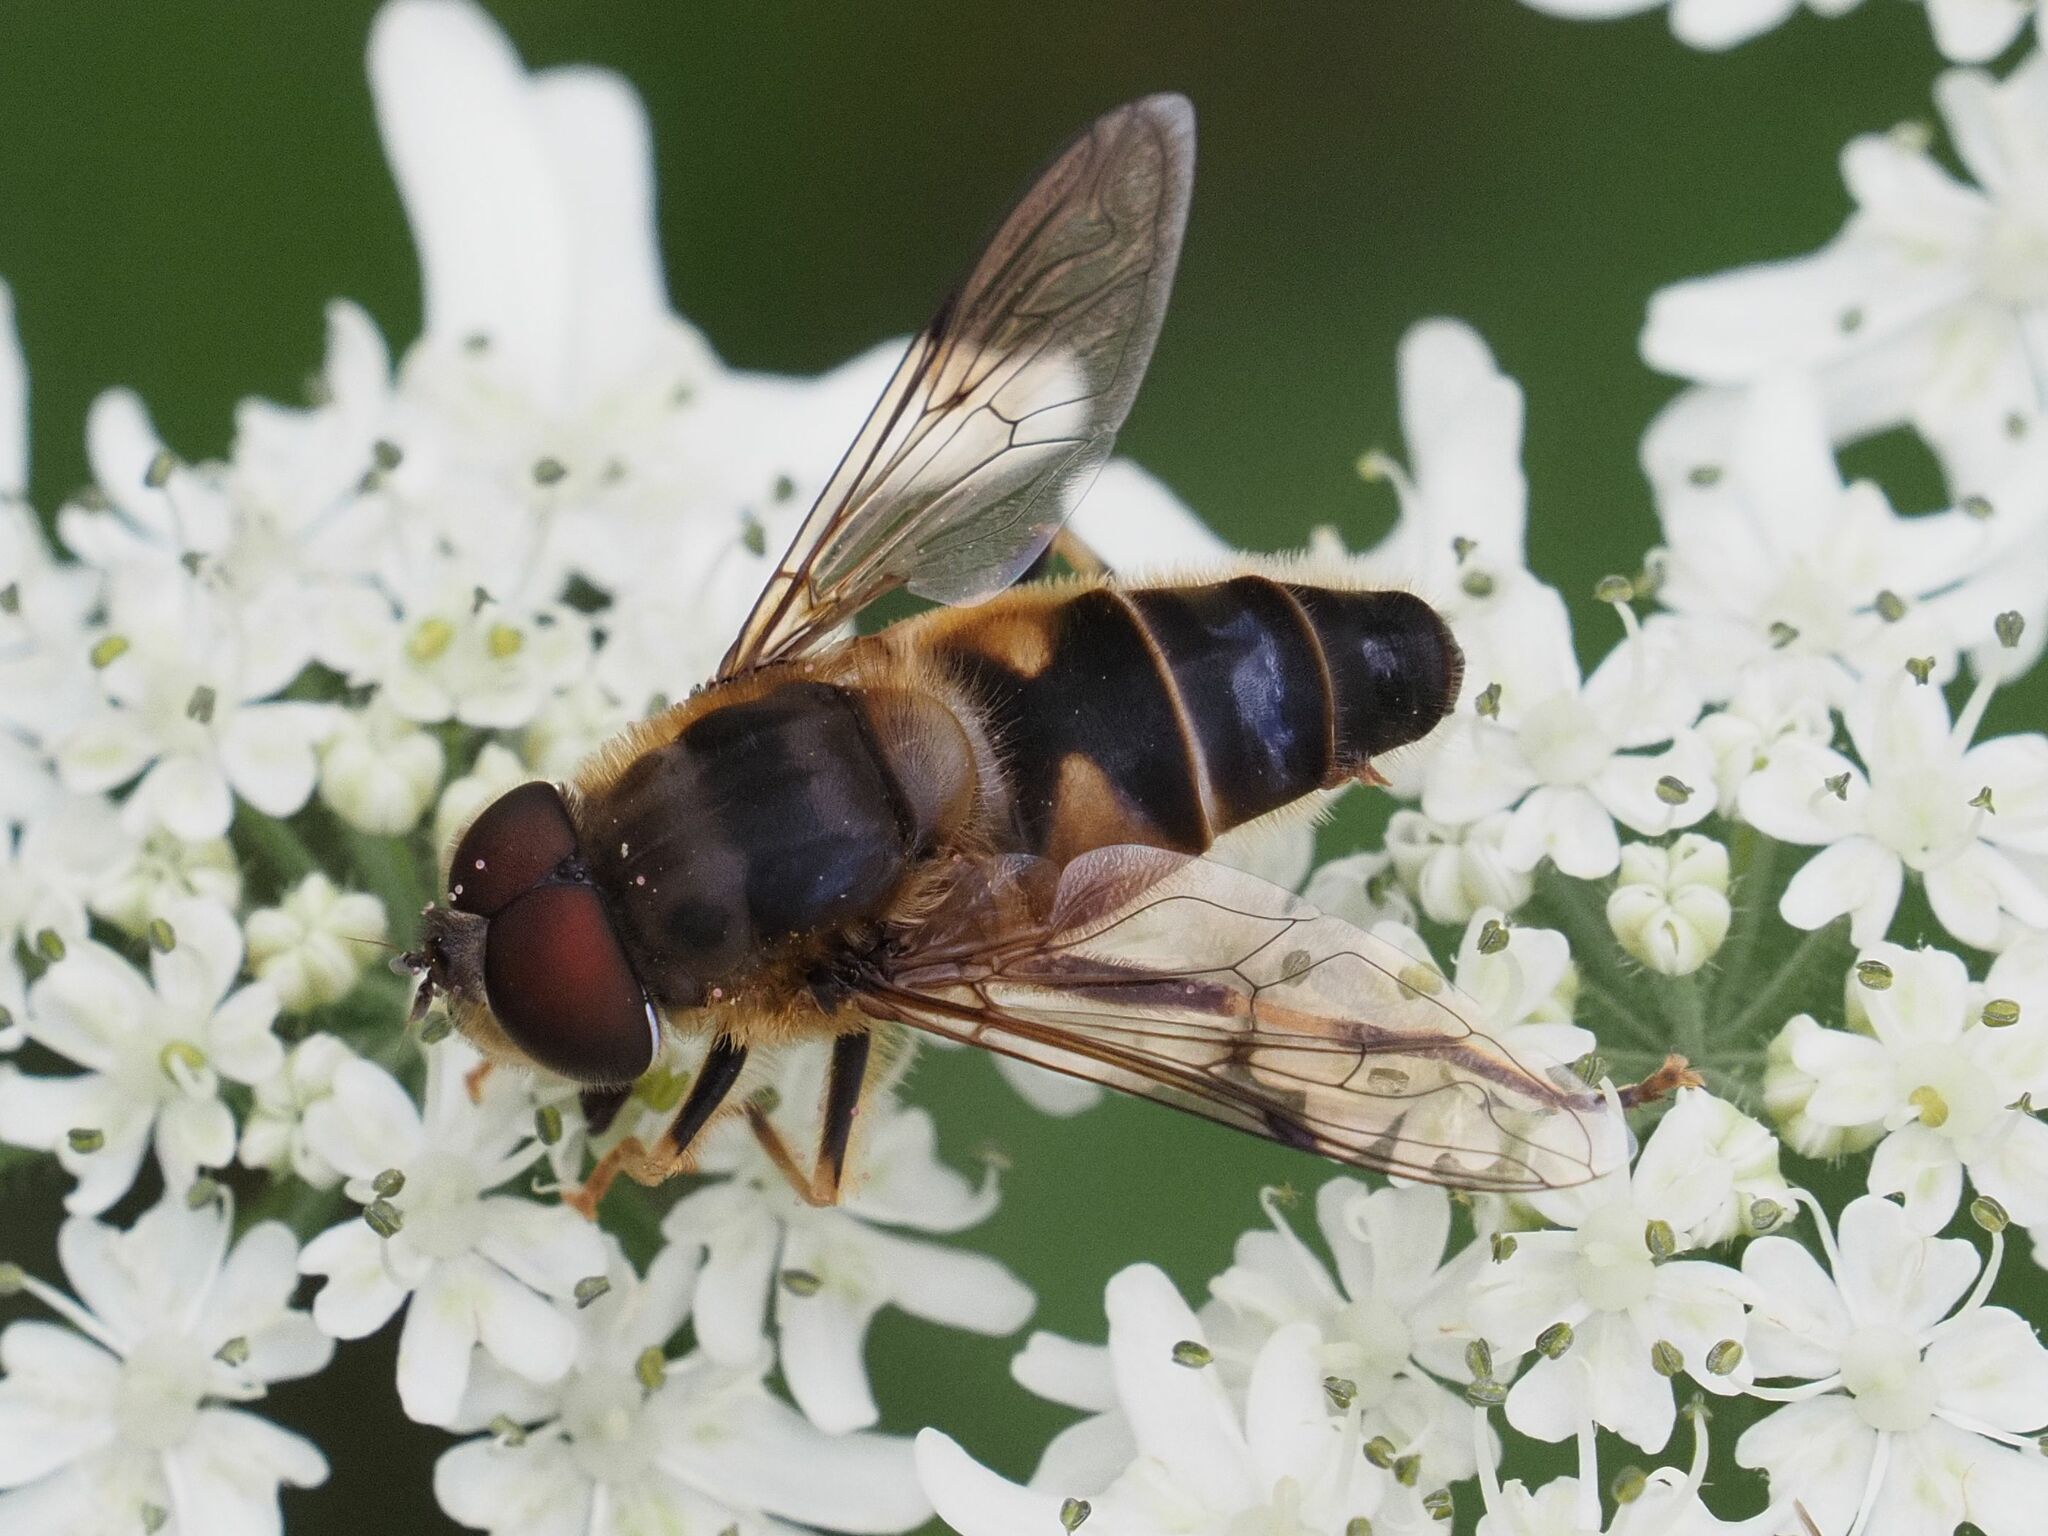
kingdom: Animalia
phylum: Arthropoda
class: Insecta
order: Diptera
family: Syrphidae
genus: Eristalis
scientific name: Eristalis pertinax
